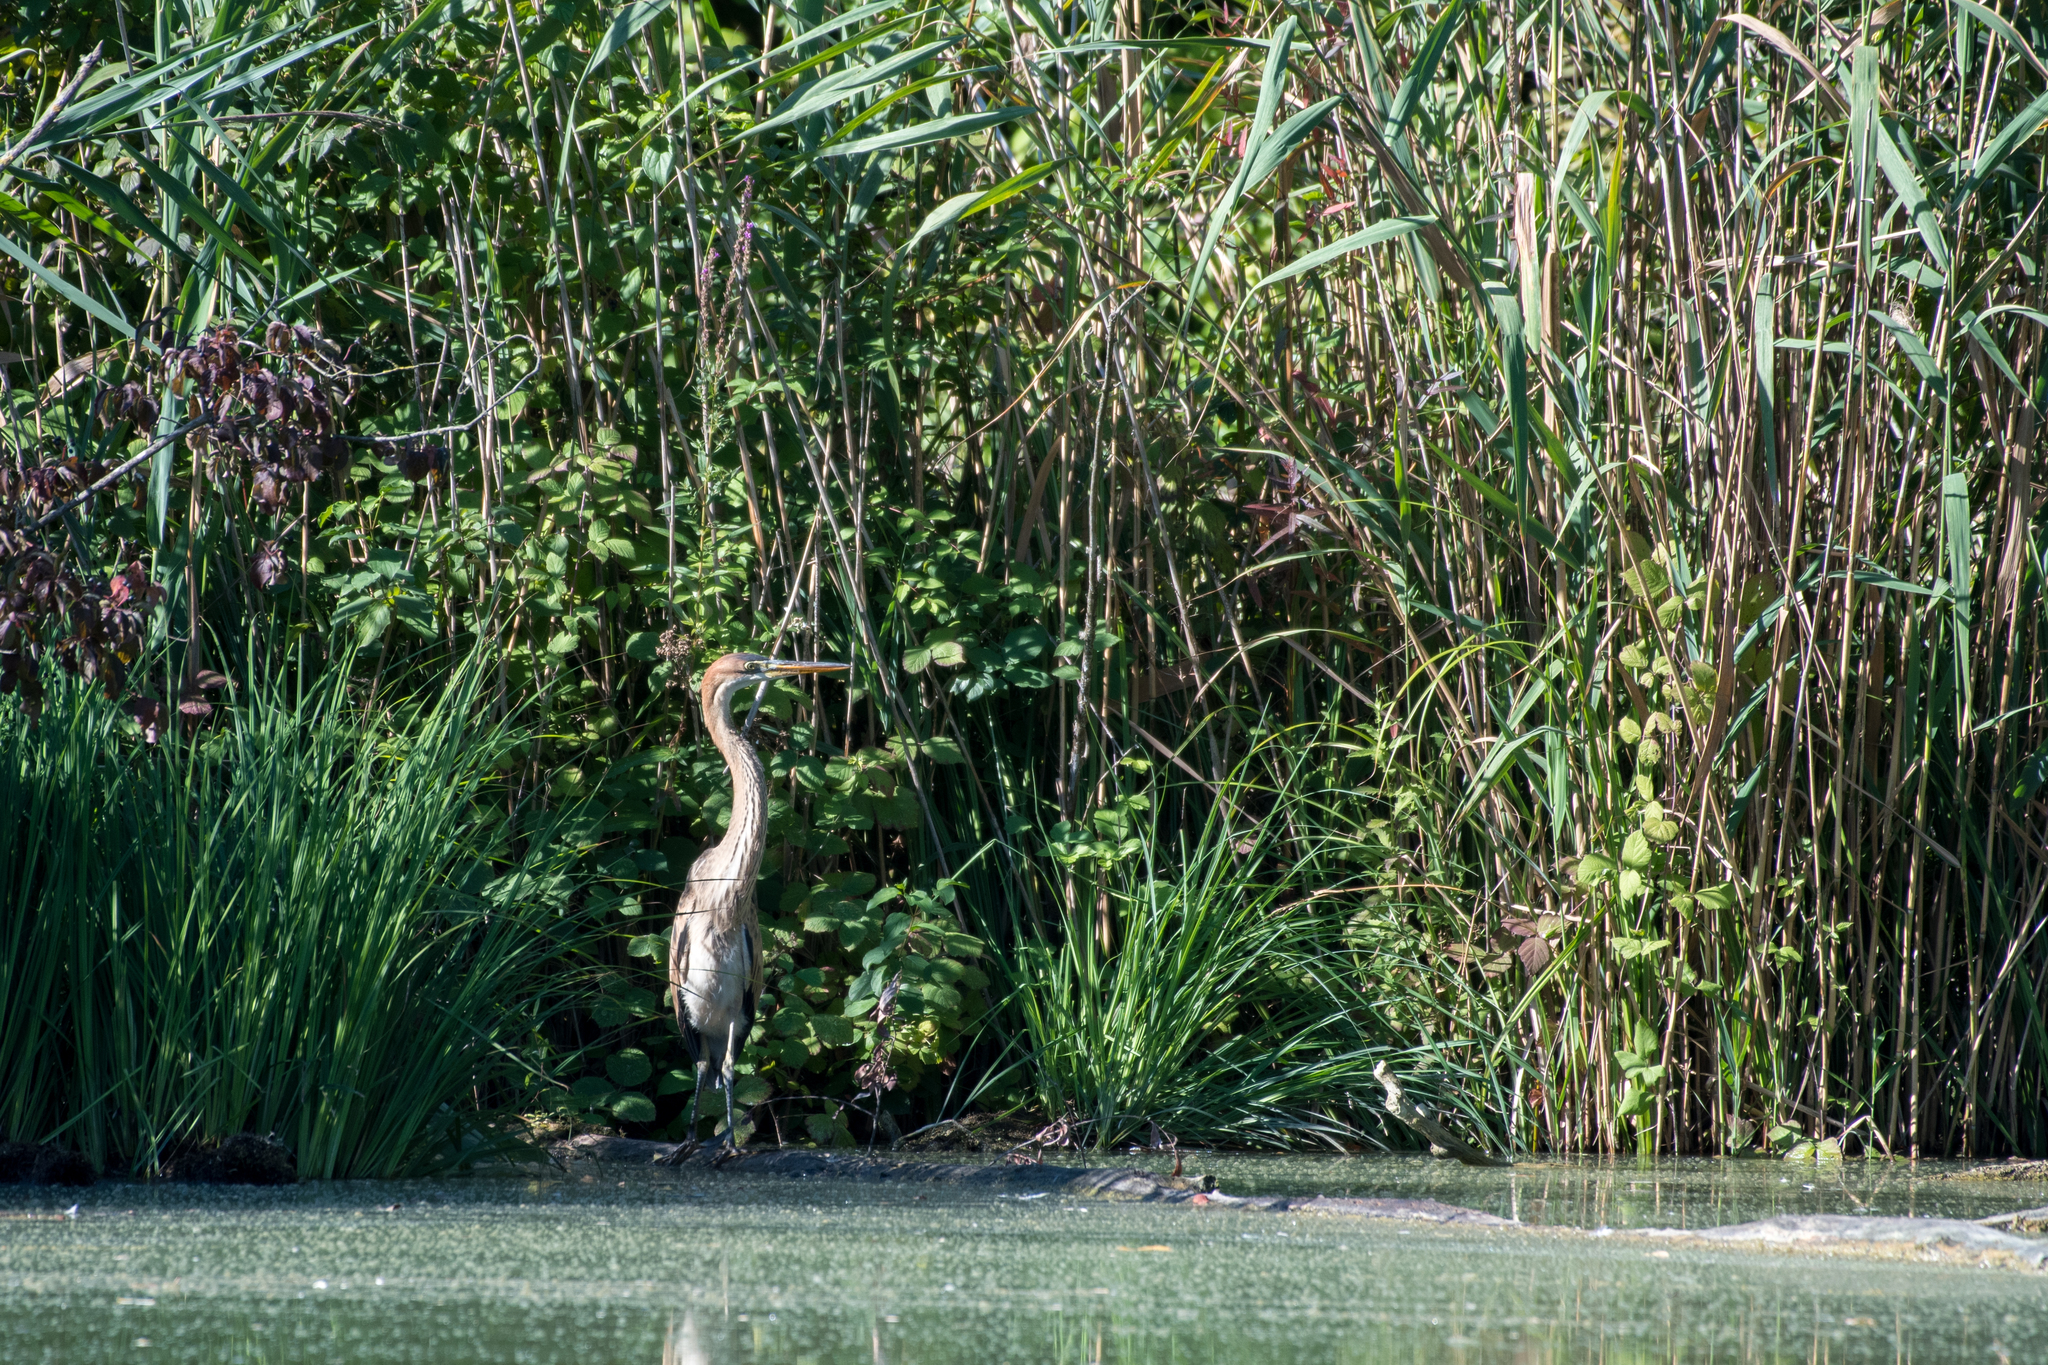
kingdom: Animalia
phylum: Chordata
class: Aves
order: Pelecaniformes
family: Ardeidae
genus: Ardea
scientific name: Ardea purpurea
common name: Purple heron
